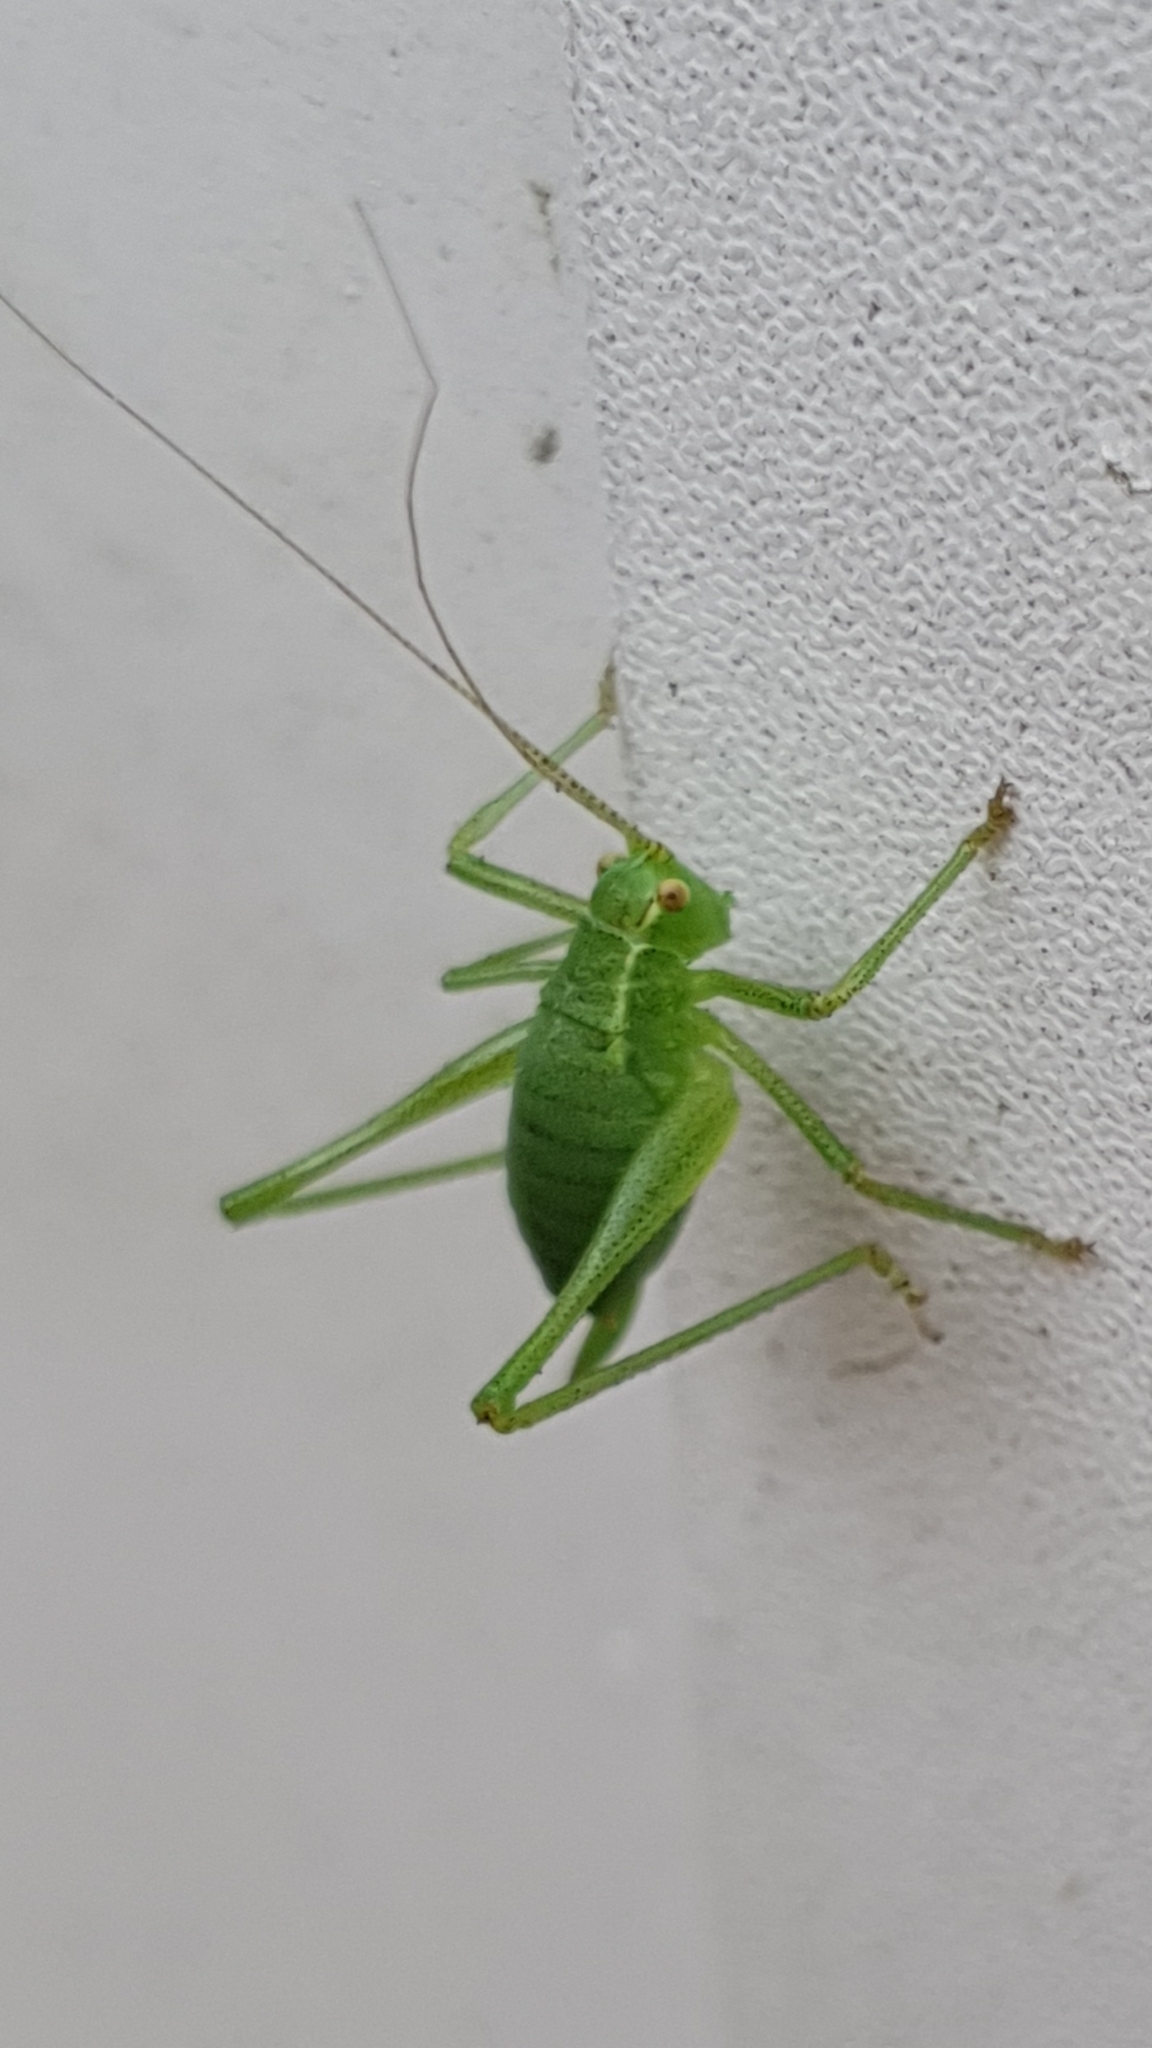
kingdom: Animalia
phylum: Arthropoda
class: Insecta
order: Orthoptera
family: Tettigoniidae
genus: Leptophyes
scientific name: Leptophyes punctatissima
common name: Speckled bush-cricket
